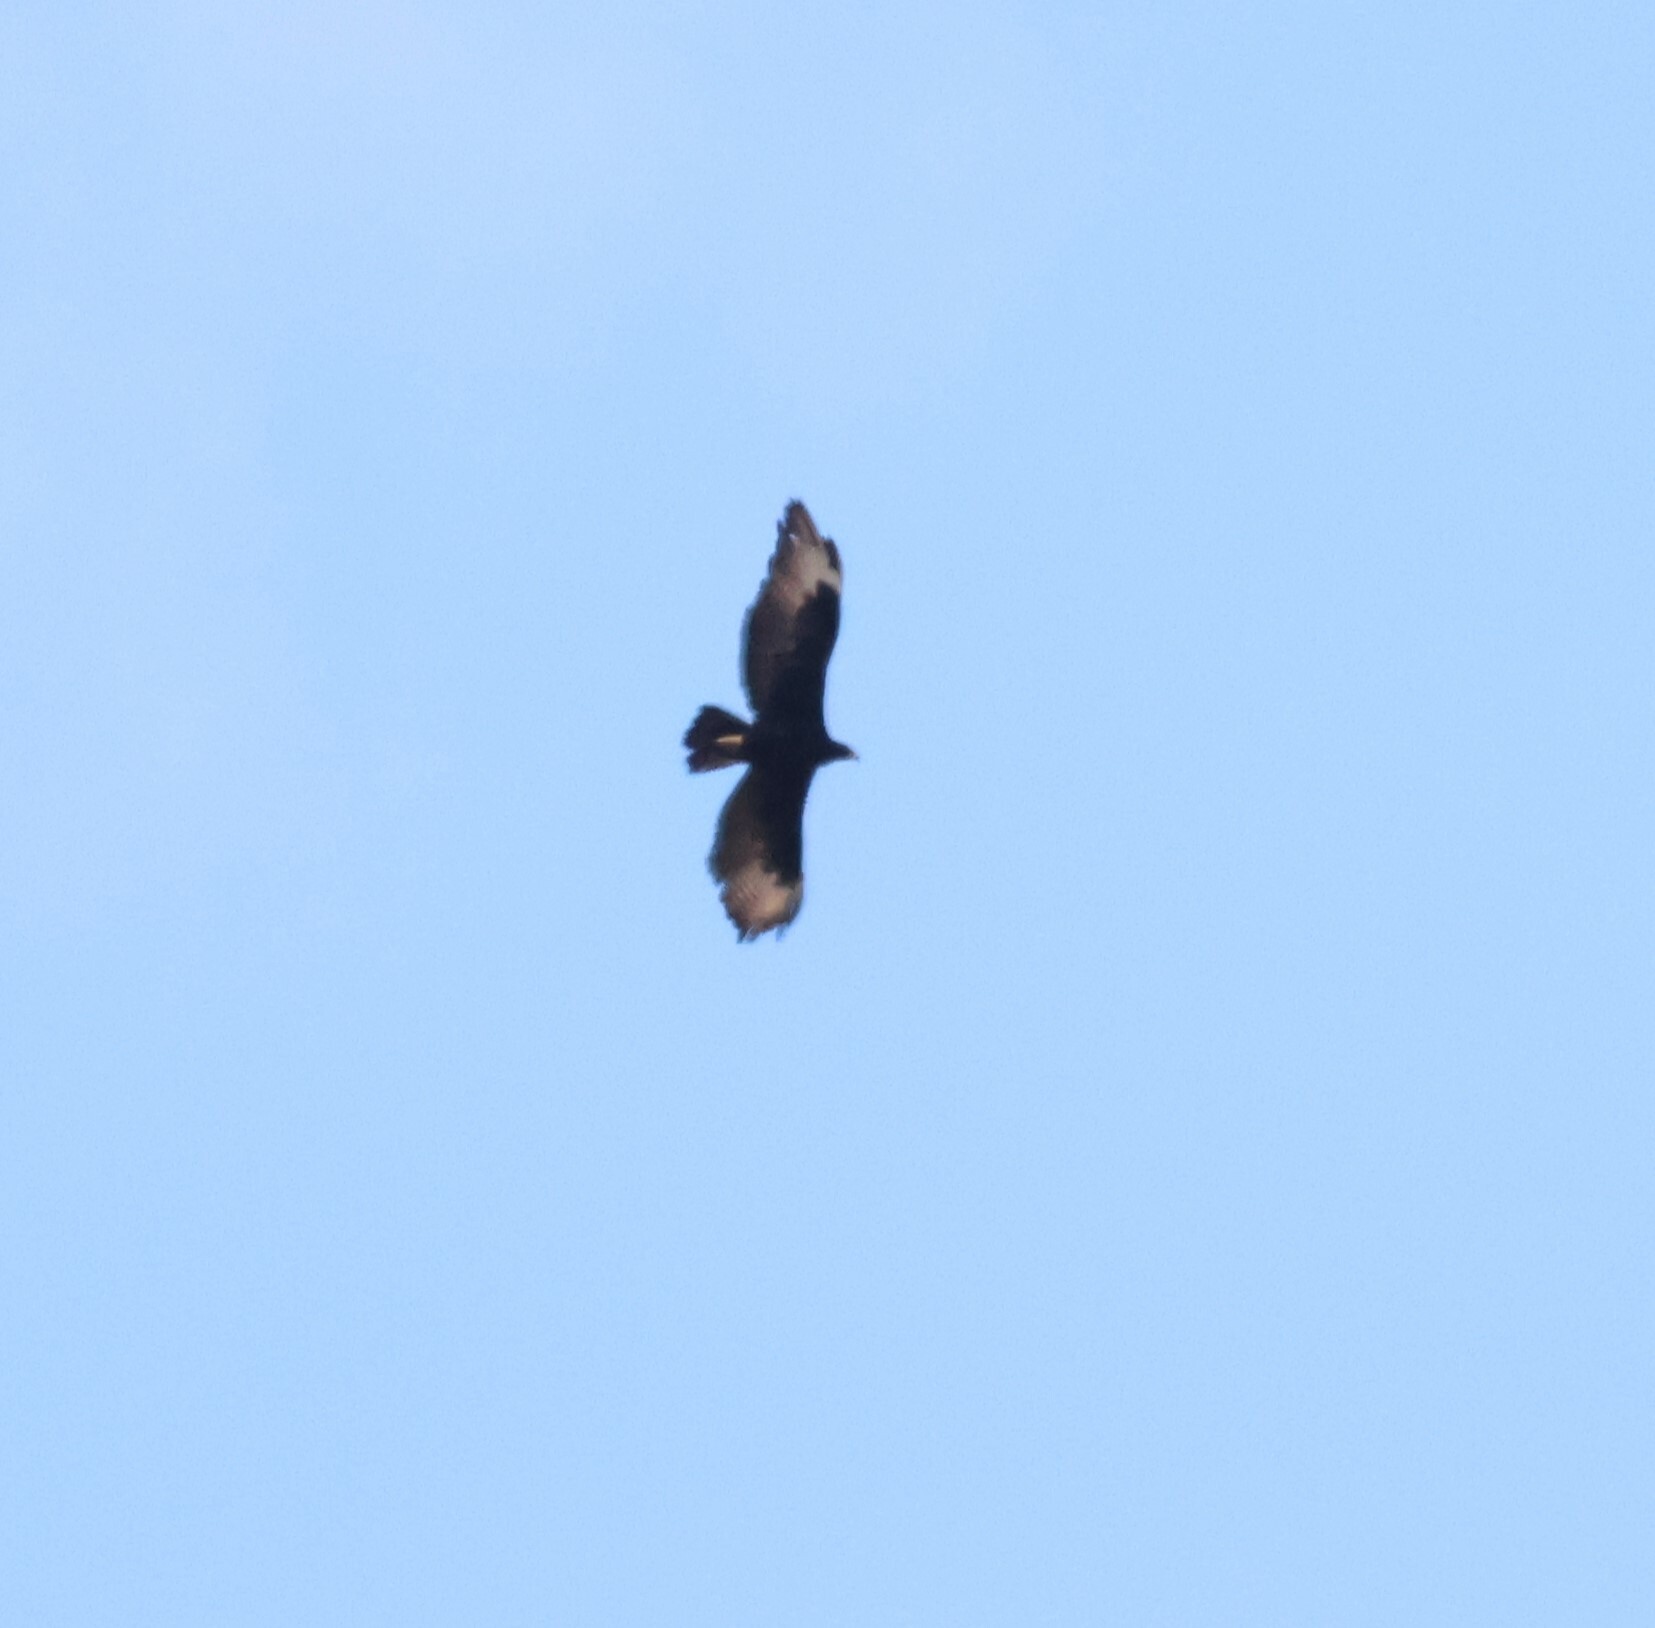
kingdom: Animalia
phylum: Chordata
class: Aves
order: Accipitriformes
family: Accipitridae
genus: Aquila
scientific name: Aquila verreauxii
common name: Verreaux's eagle
